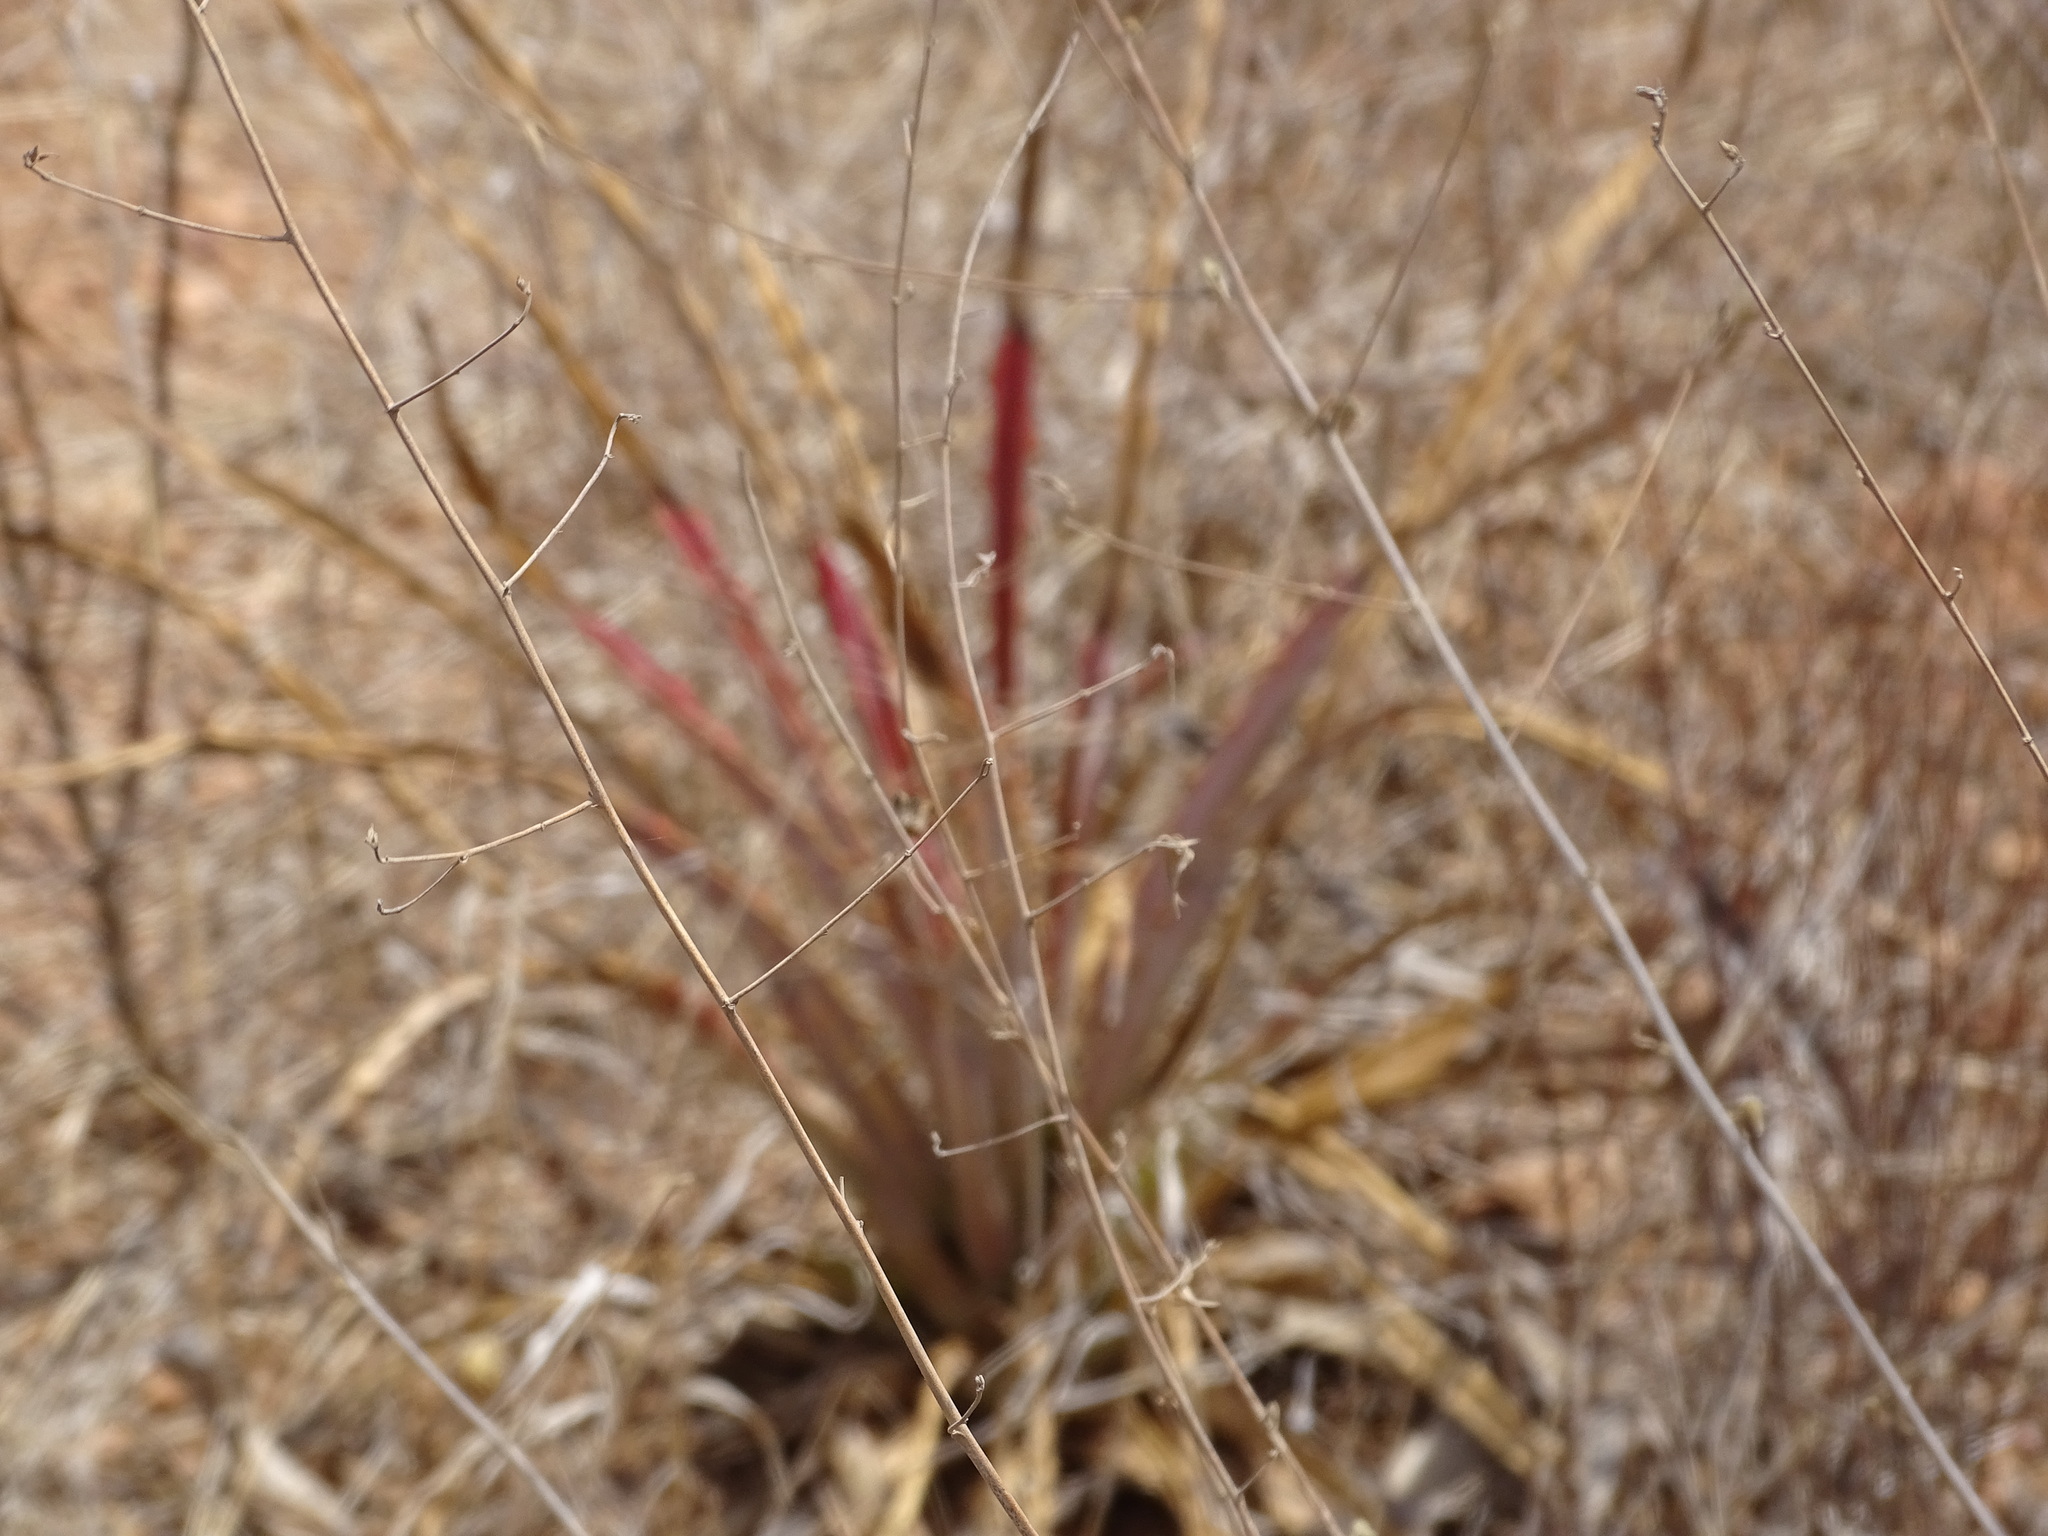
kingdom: Plantae
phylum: Tracheophyta
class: Liliopsida
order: Poales
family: Bromeliaceae
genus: Bromelia
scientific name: Bromelia pinguin
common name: Pinguin
